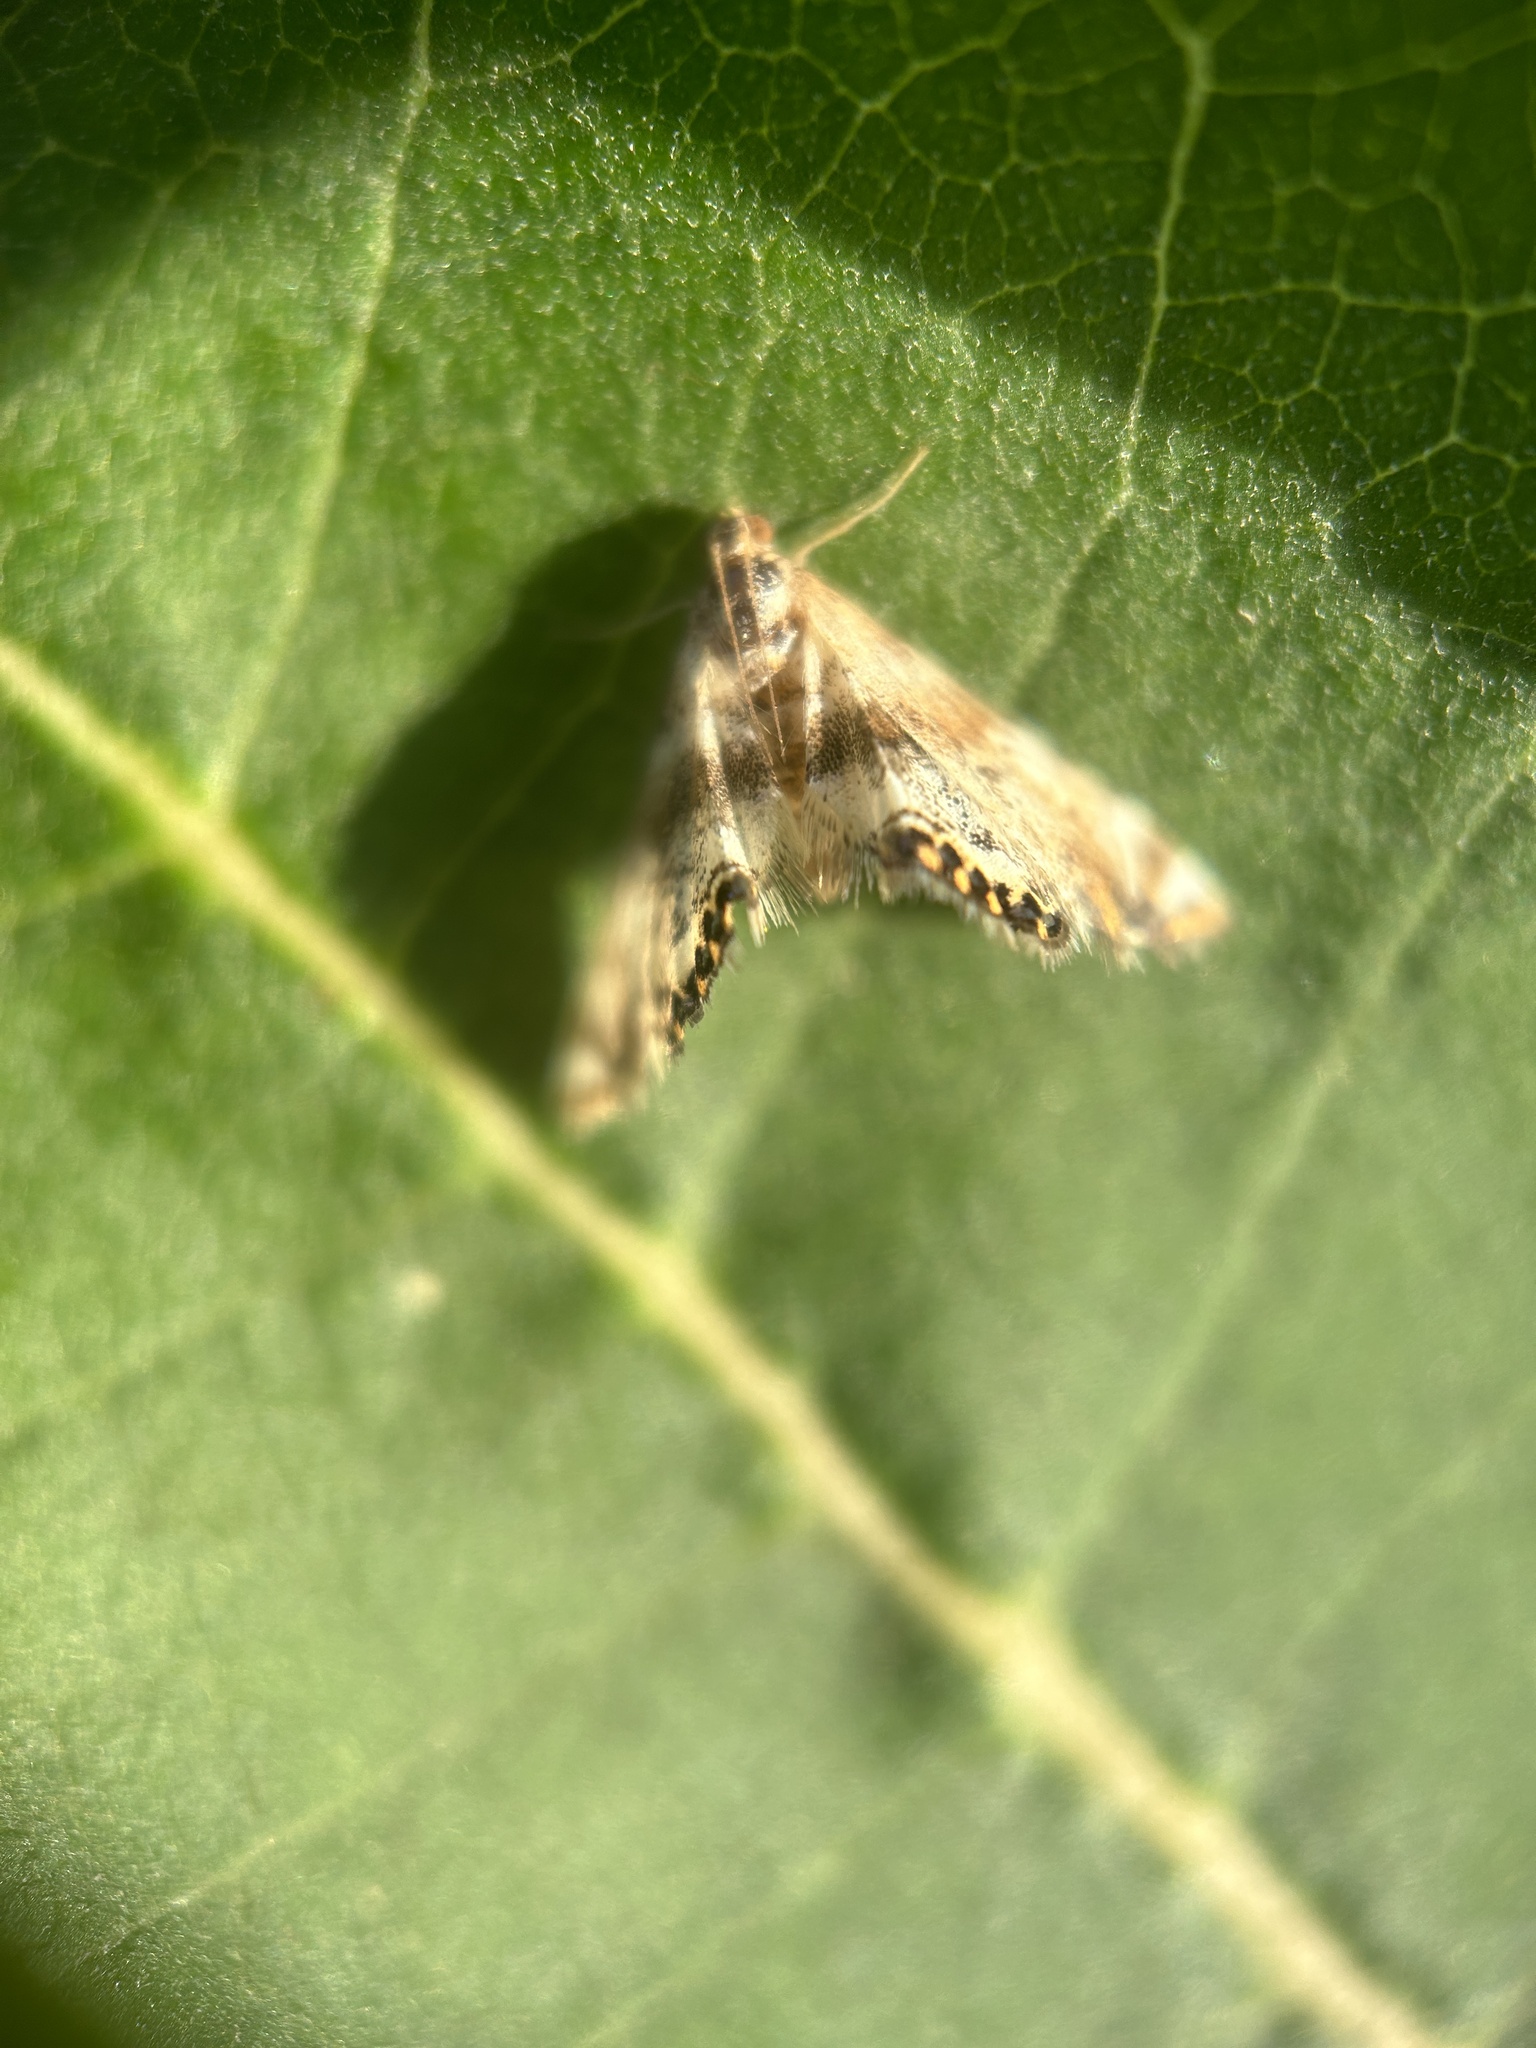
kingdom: Animalia
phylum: Arthropoda
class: Insecta
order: Lepidoptera
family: Crambidae
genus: Petrophila
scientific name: Petrophila fulicalis
